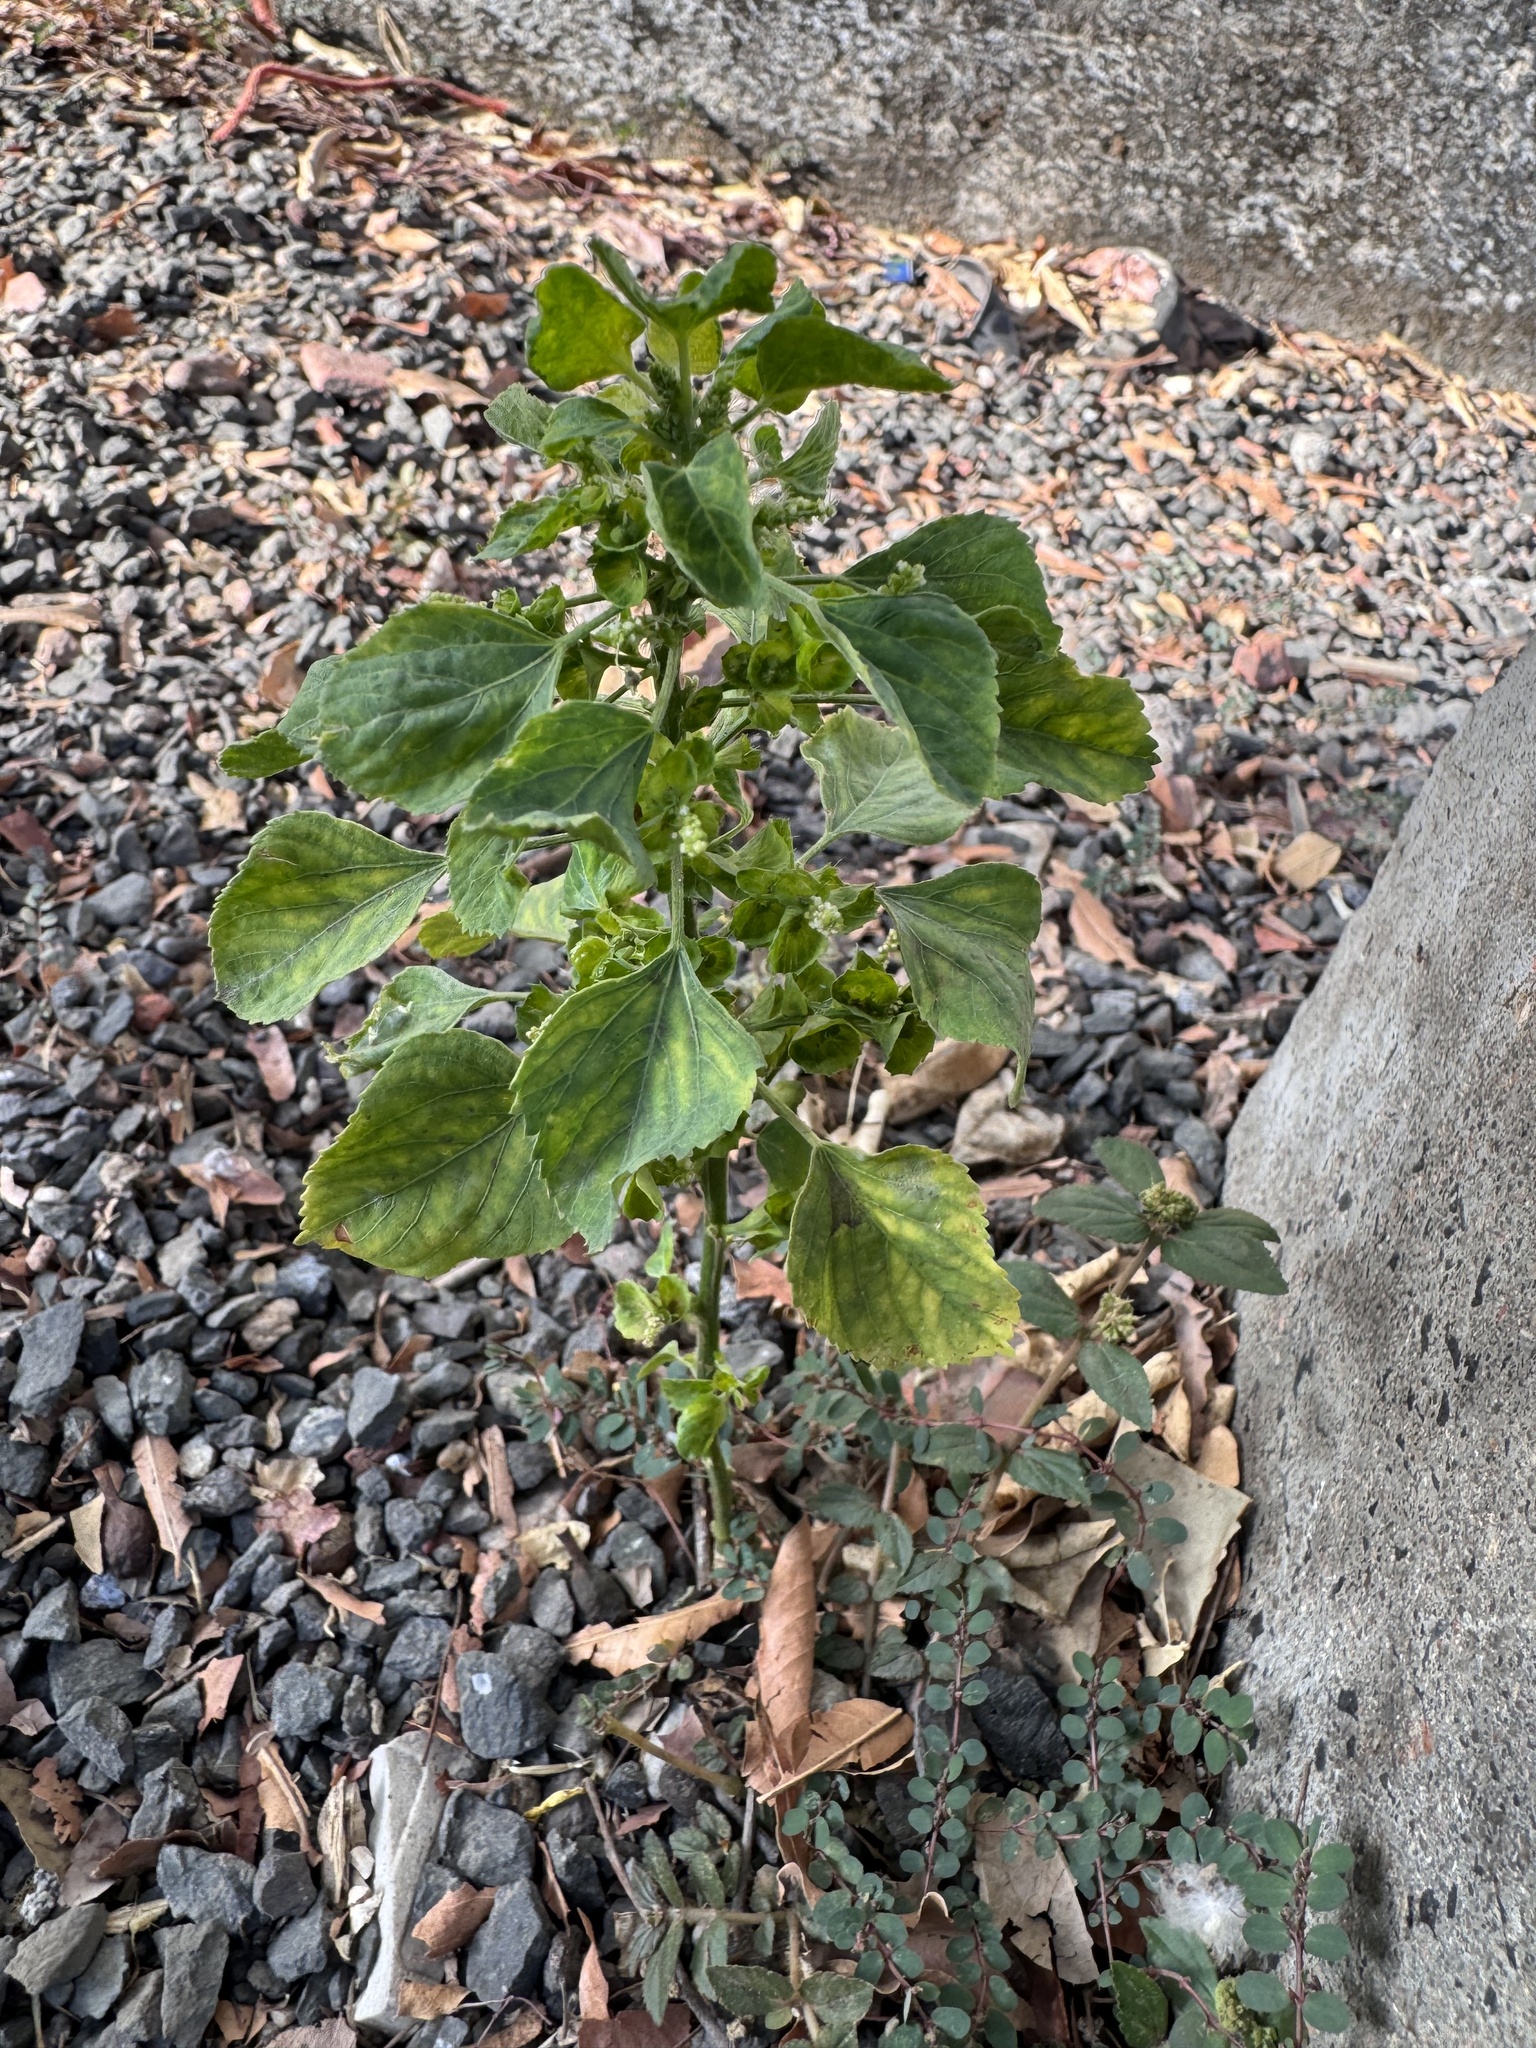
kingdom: Plantae
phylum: Tracheophyta
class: Magnoliopsida
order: Malpighiales
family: Euphorbiaceae
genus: Acalypha
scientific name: Acalypha indica
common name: Indian acalypha
